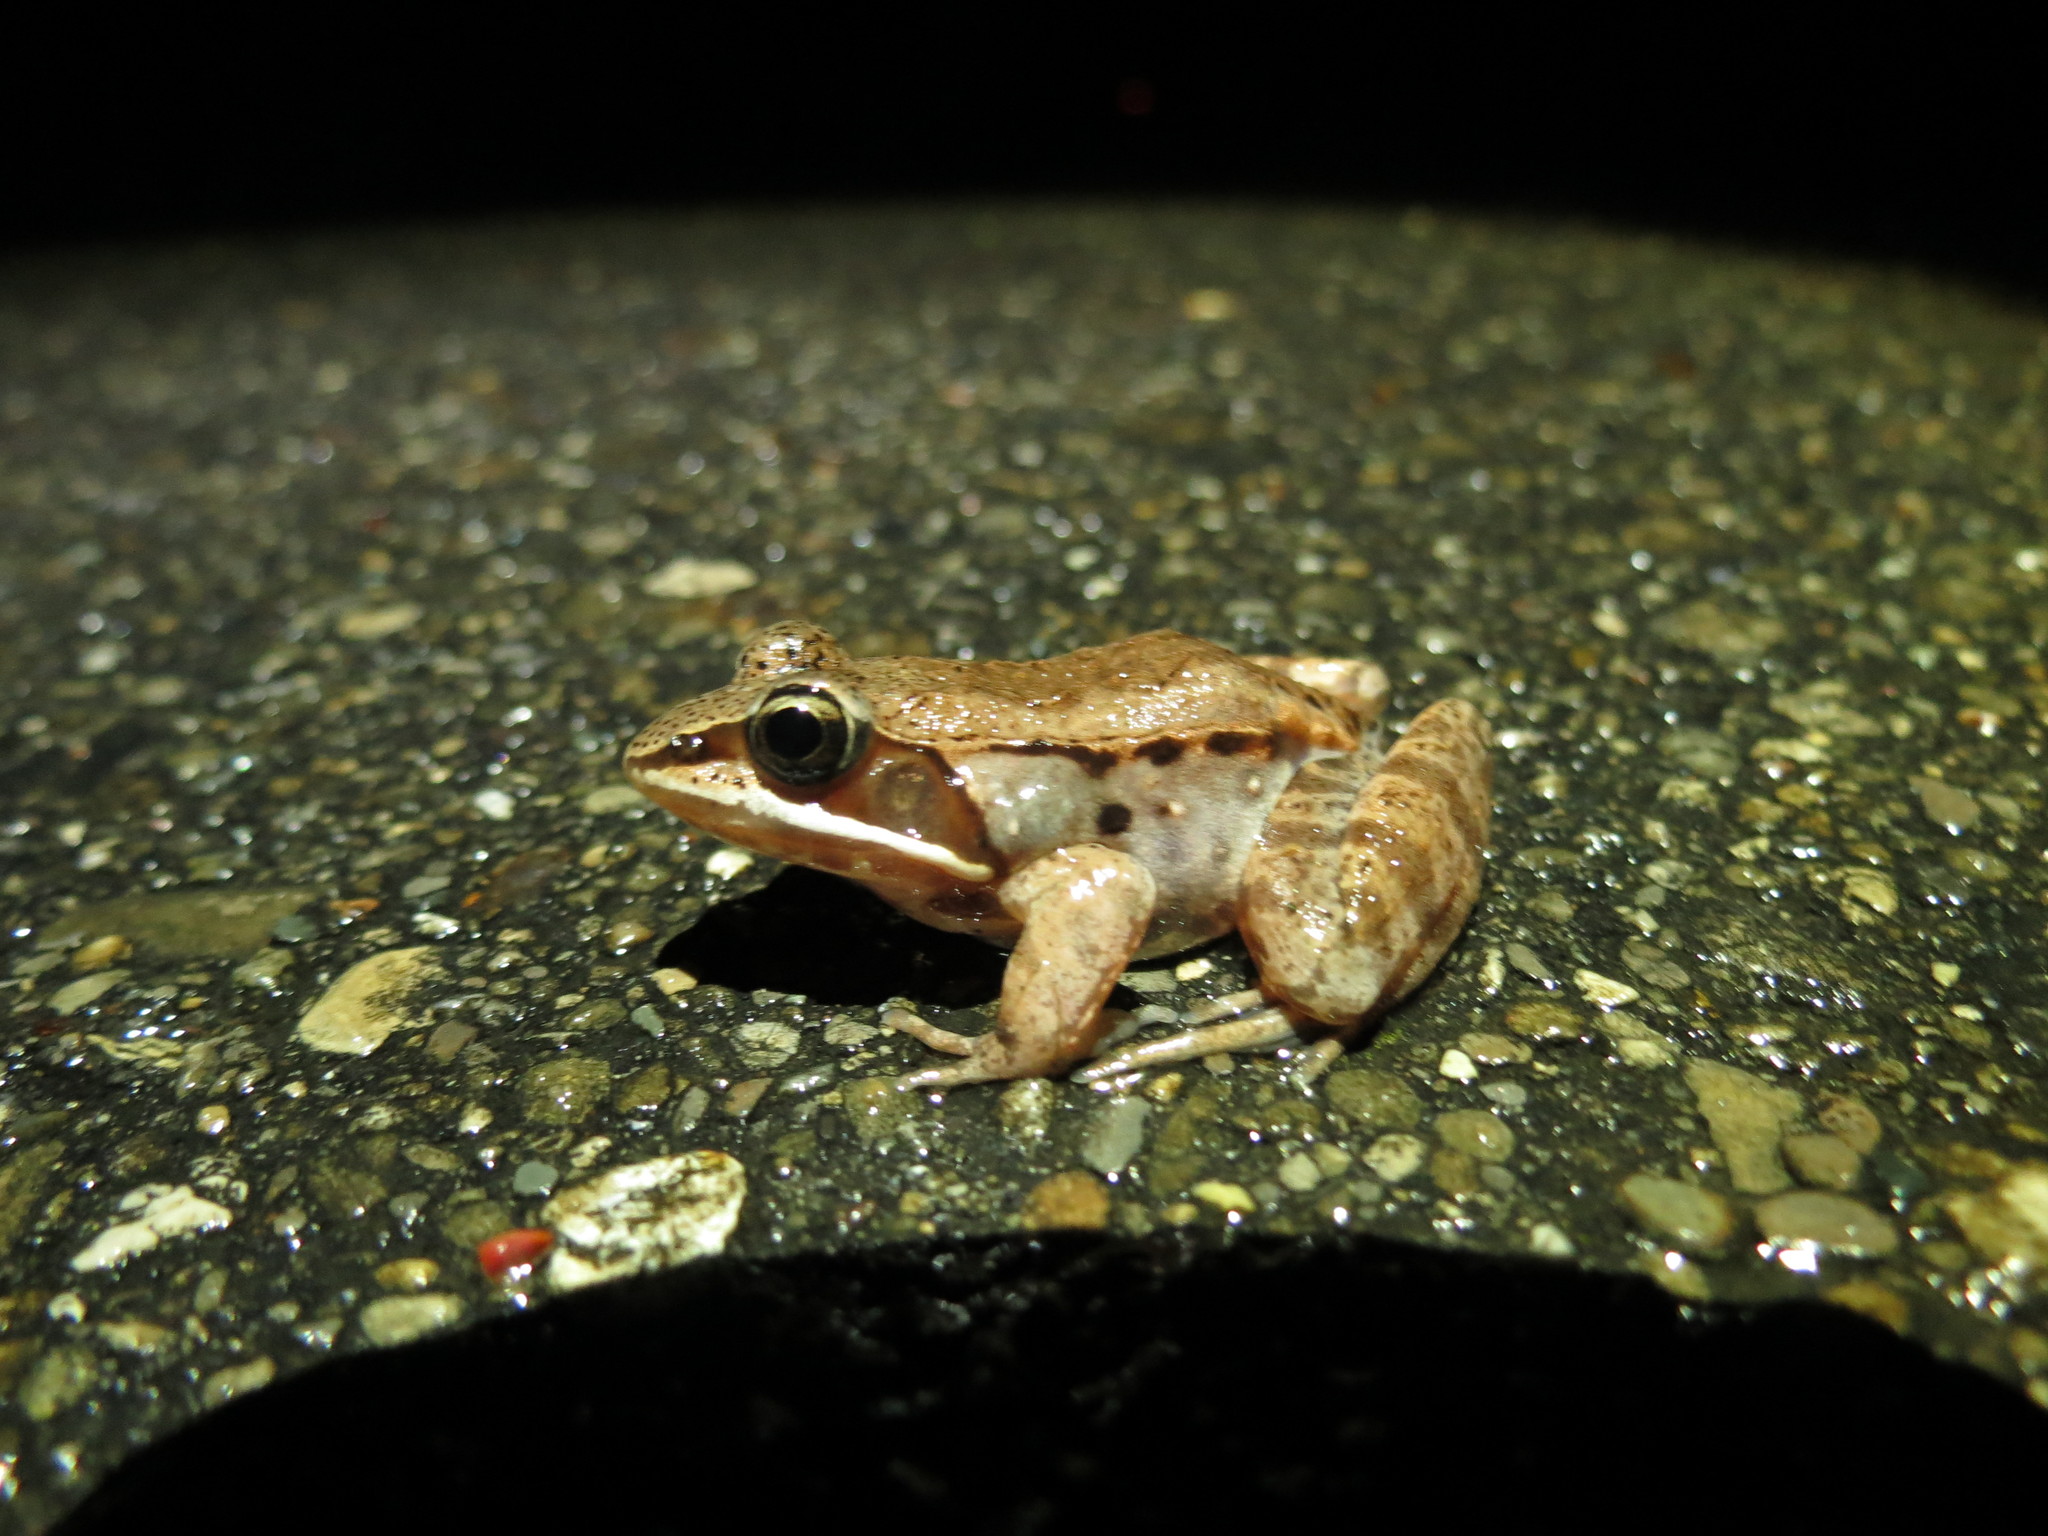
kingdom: Animalia
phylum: Chordata
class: Amphibia
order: Anura
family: Ranidae
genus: Lithobates
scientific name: Lithobates sylvaticus
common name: Wood frog
